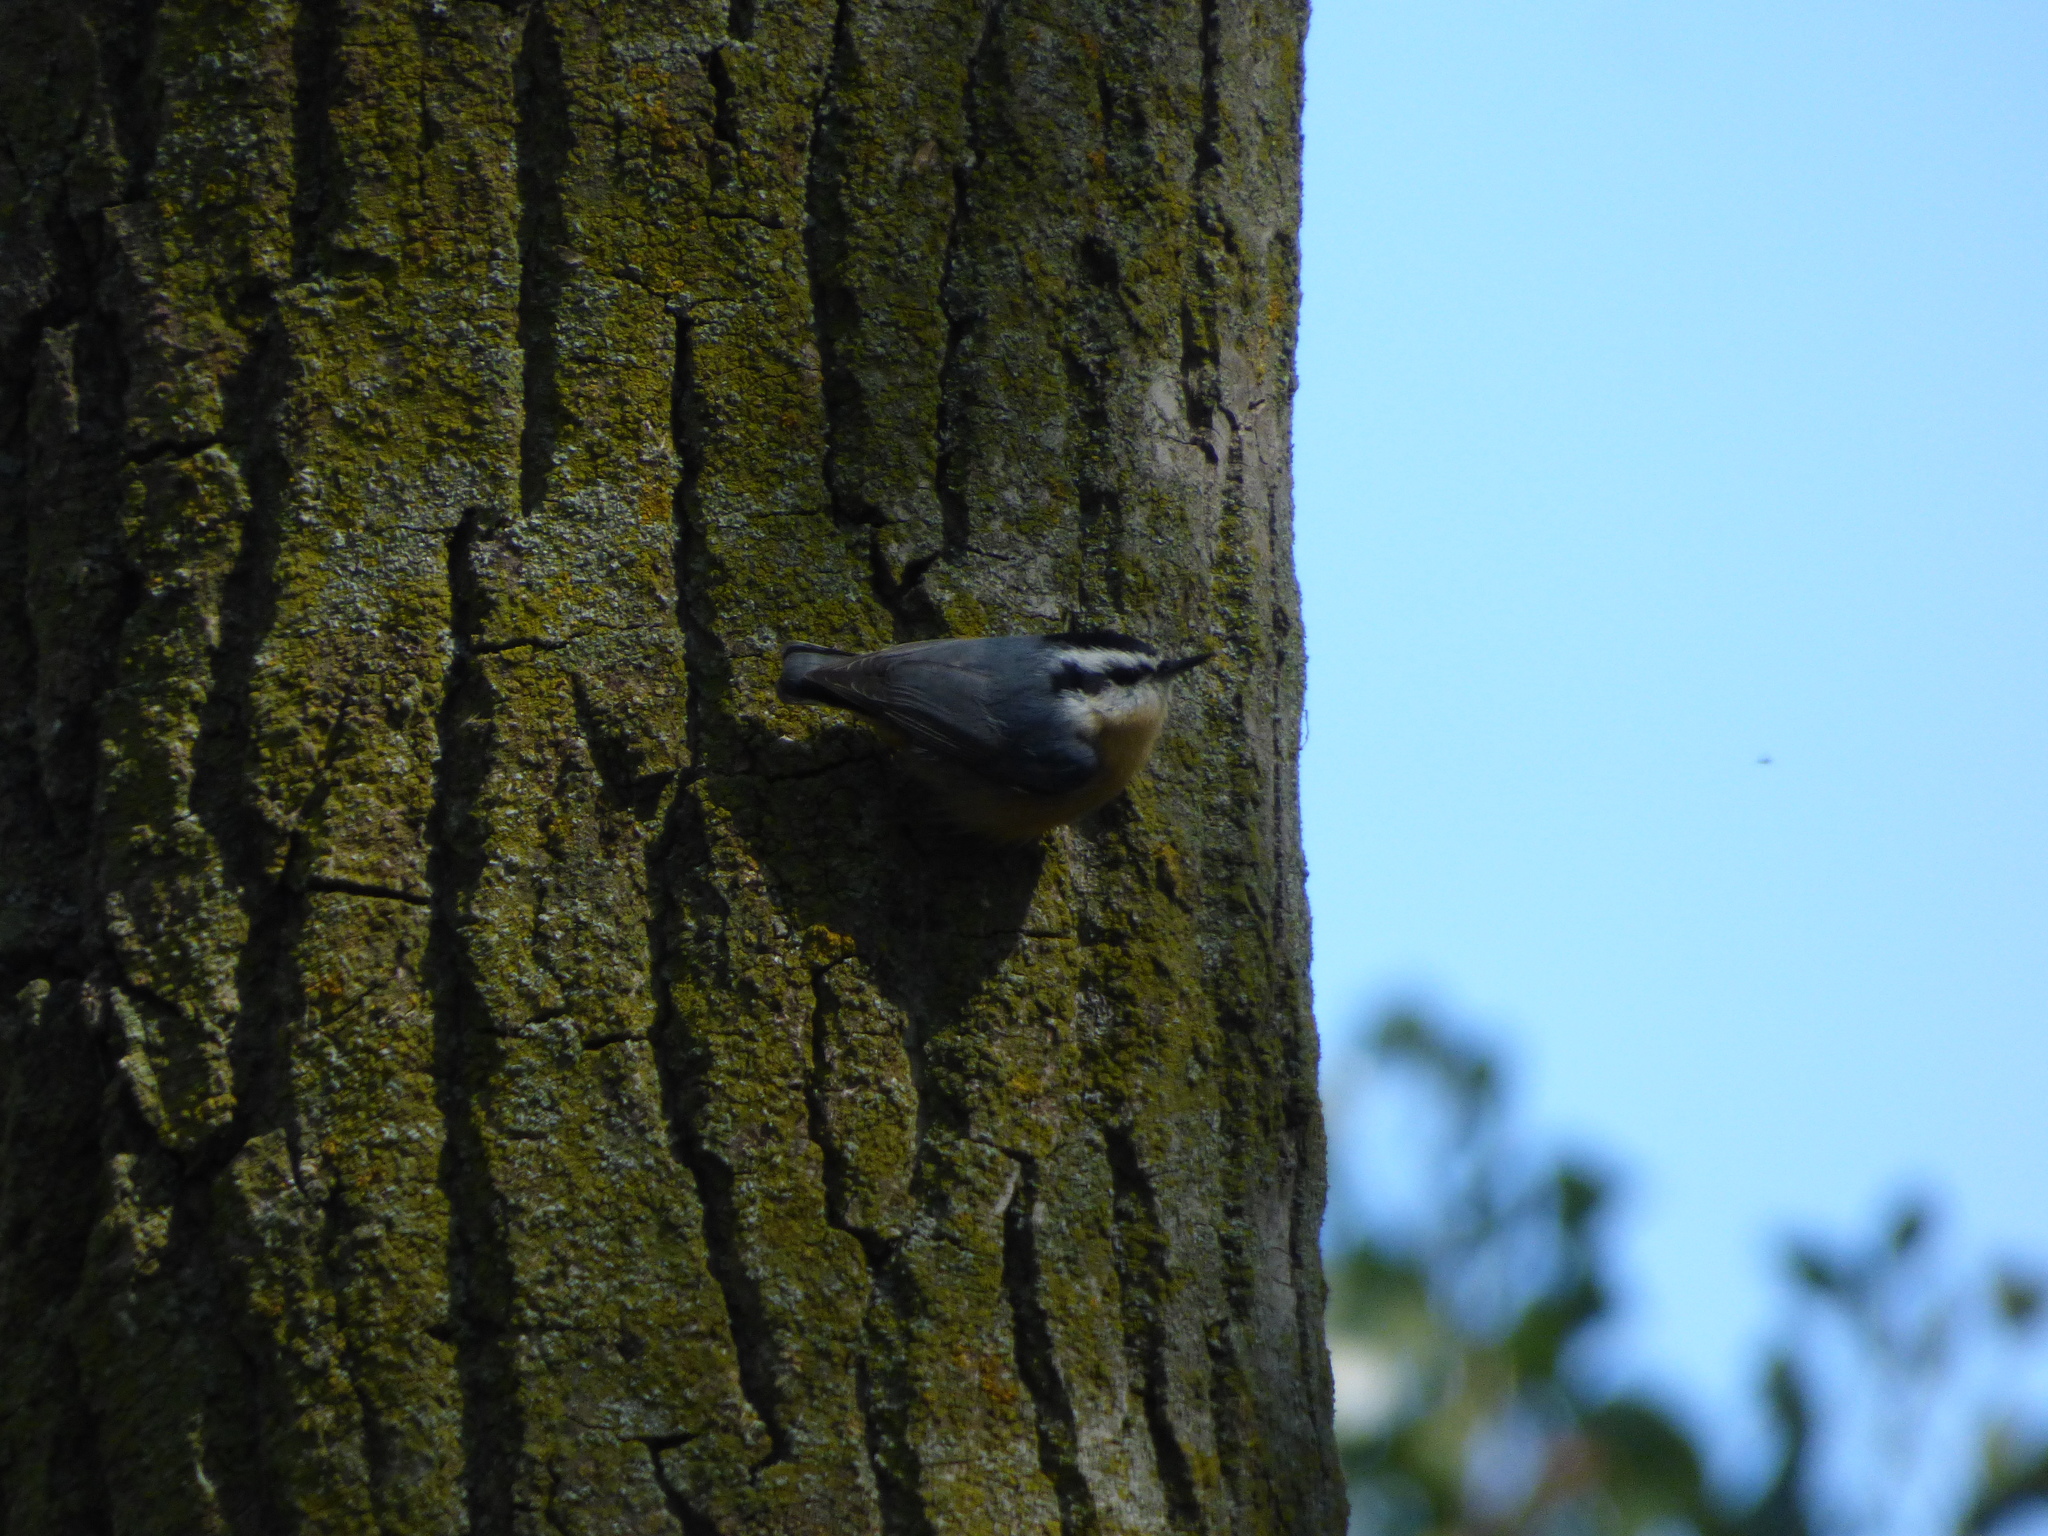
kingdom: Animalia
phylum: Chordata
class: Aves
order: Passeriformes
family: Sittidae
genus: Sitta
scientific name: Sitta canadensis
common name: Red-breasted nuthatch
